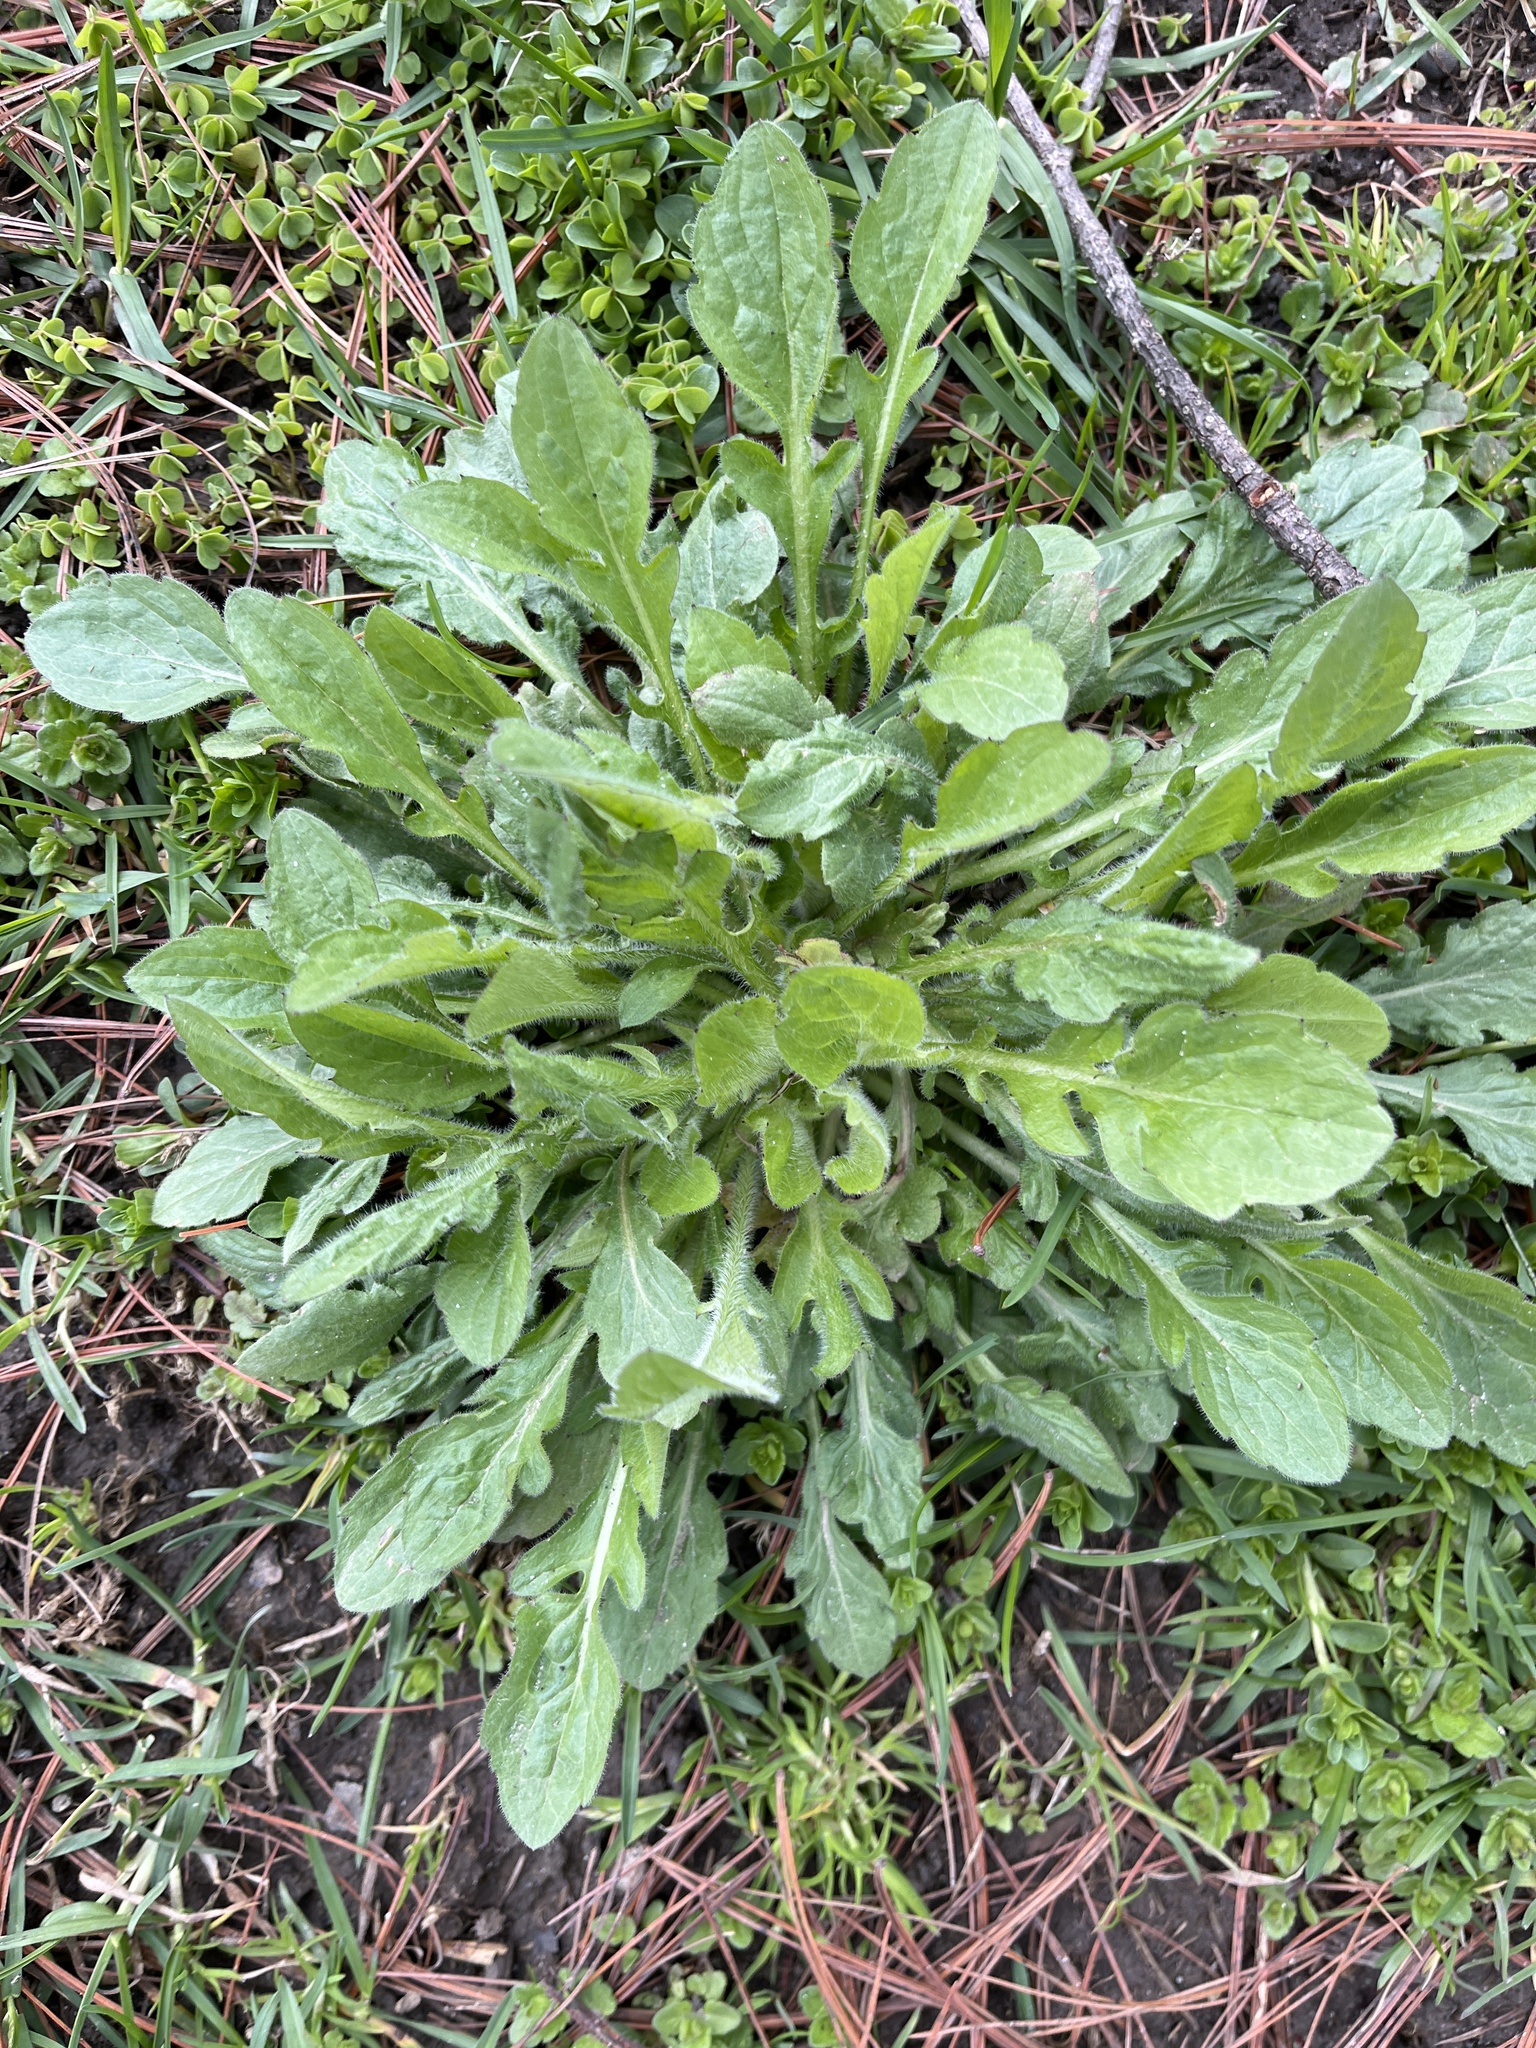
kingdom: Plantae
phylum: Tracheophyta
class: Magnoliopsida
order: Asterales
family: Asteraceae
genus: Erigeron
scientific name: Erigeron canadensis
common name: Canadian fleabane
